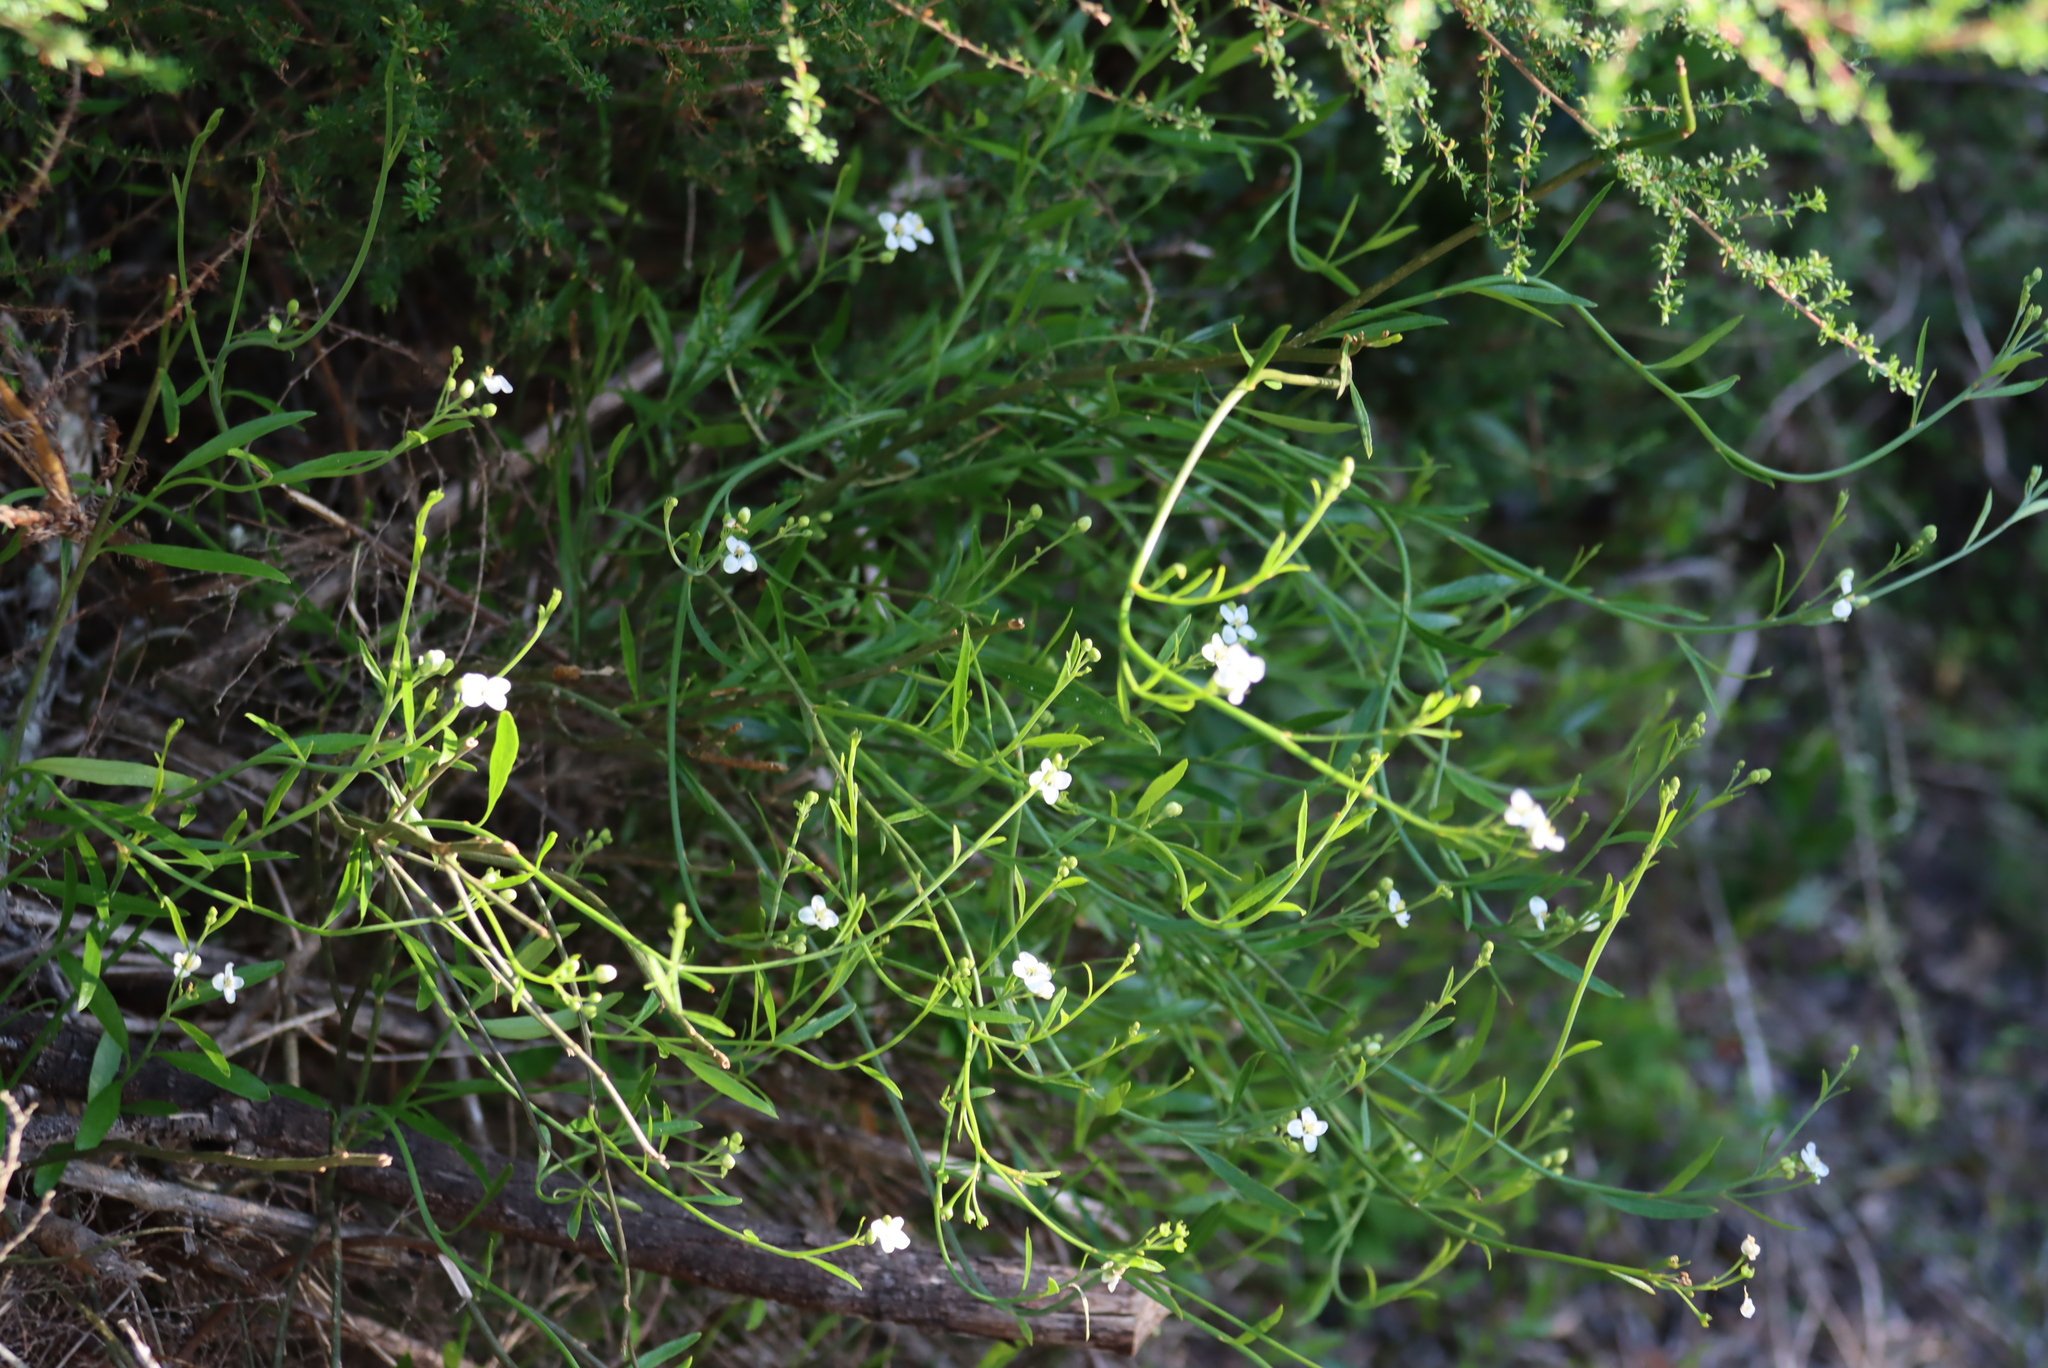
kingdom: Plantae
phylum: Tracheophyta
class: Magnoliopsida
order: Solanales
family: Montiniaceae
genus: Montinia
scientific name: Montinia caryophyllacea
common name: Wild clove-bush
